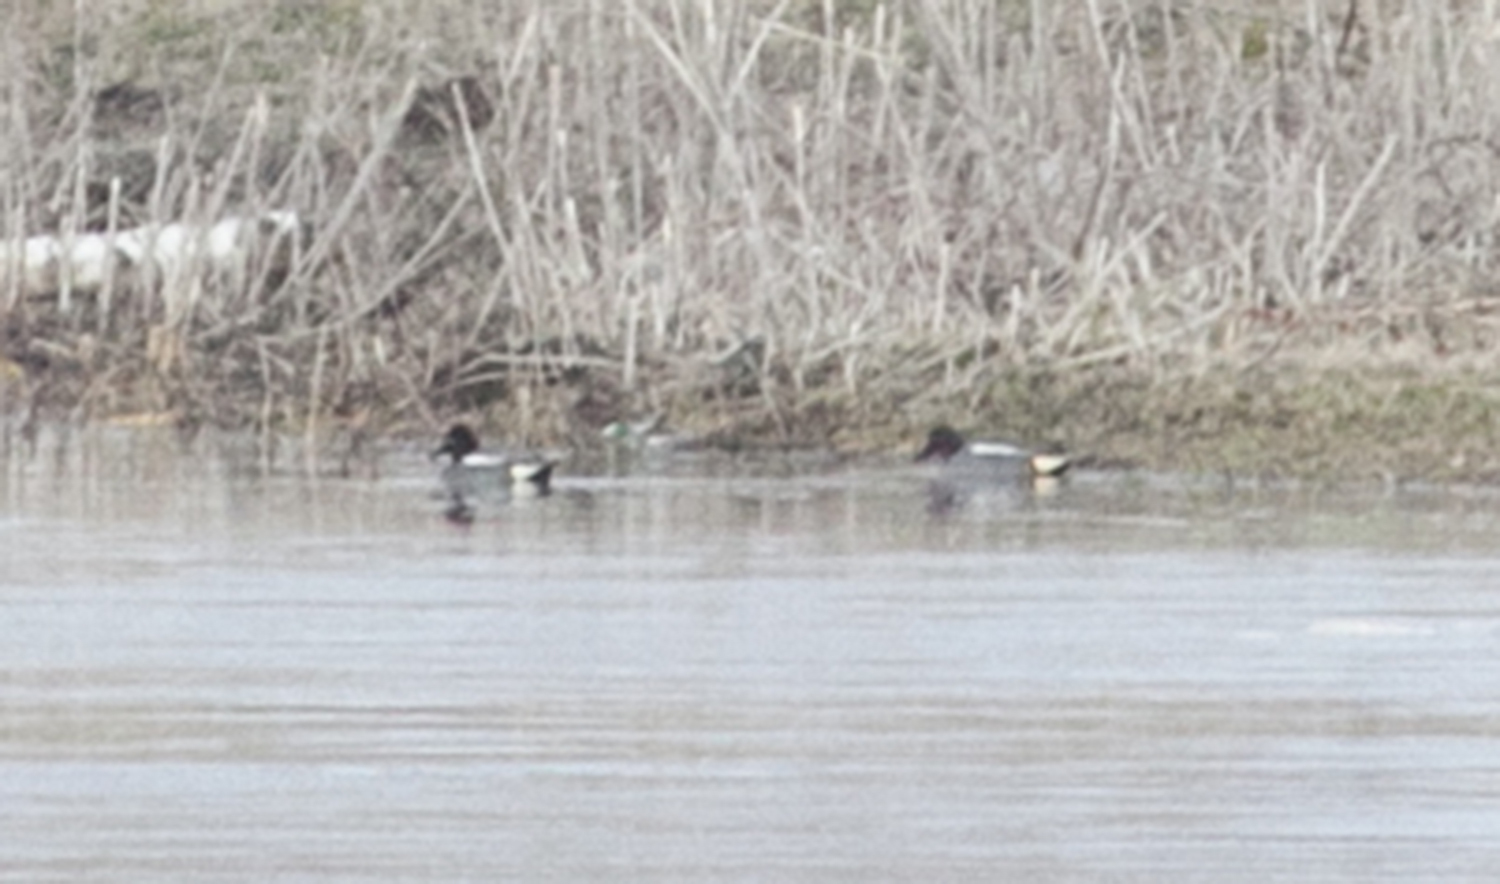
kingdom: Animalia
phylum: Chordata
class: Aves
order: Anseriformes
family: Anatidae
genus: Anas
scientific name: Anas crecca
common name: Eurasian teal
